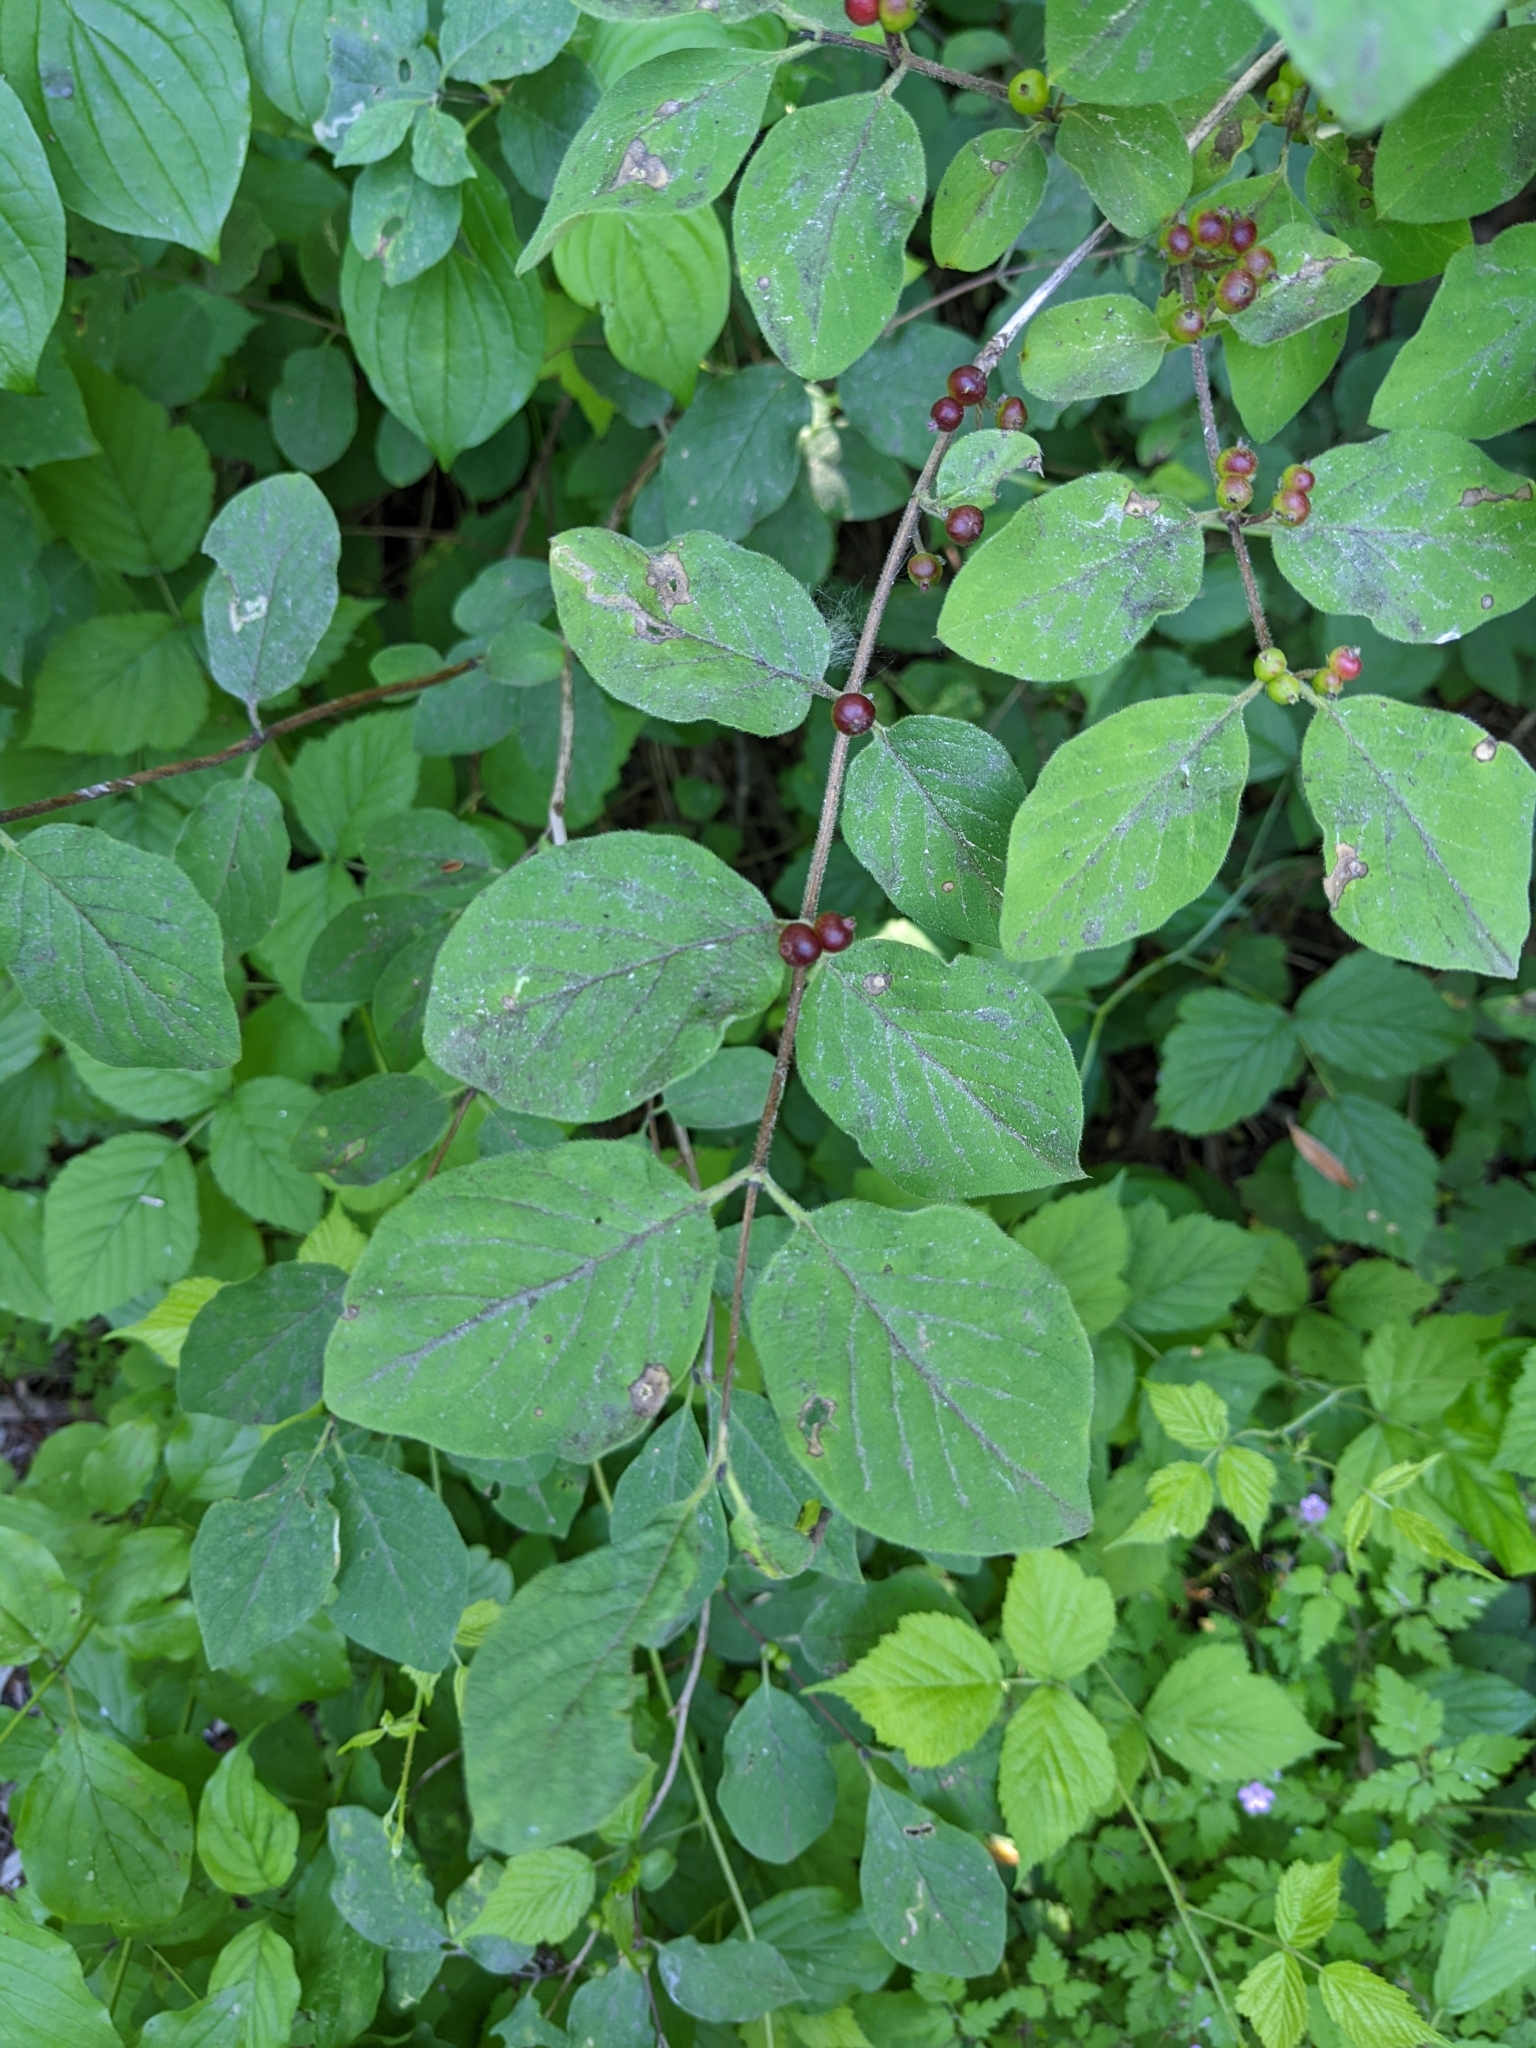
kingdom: Plantae
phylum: Tracheophyta
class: Magnoliopsida
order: Dipsacales
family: Caprifoliaceae
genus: Lonicera
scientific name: Lonicera xylosteum
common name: Fly honeysuckle
